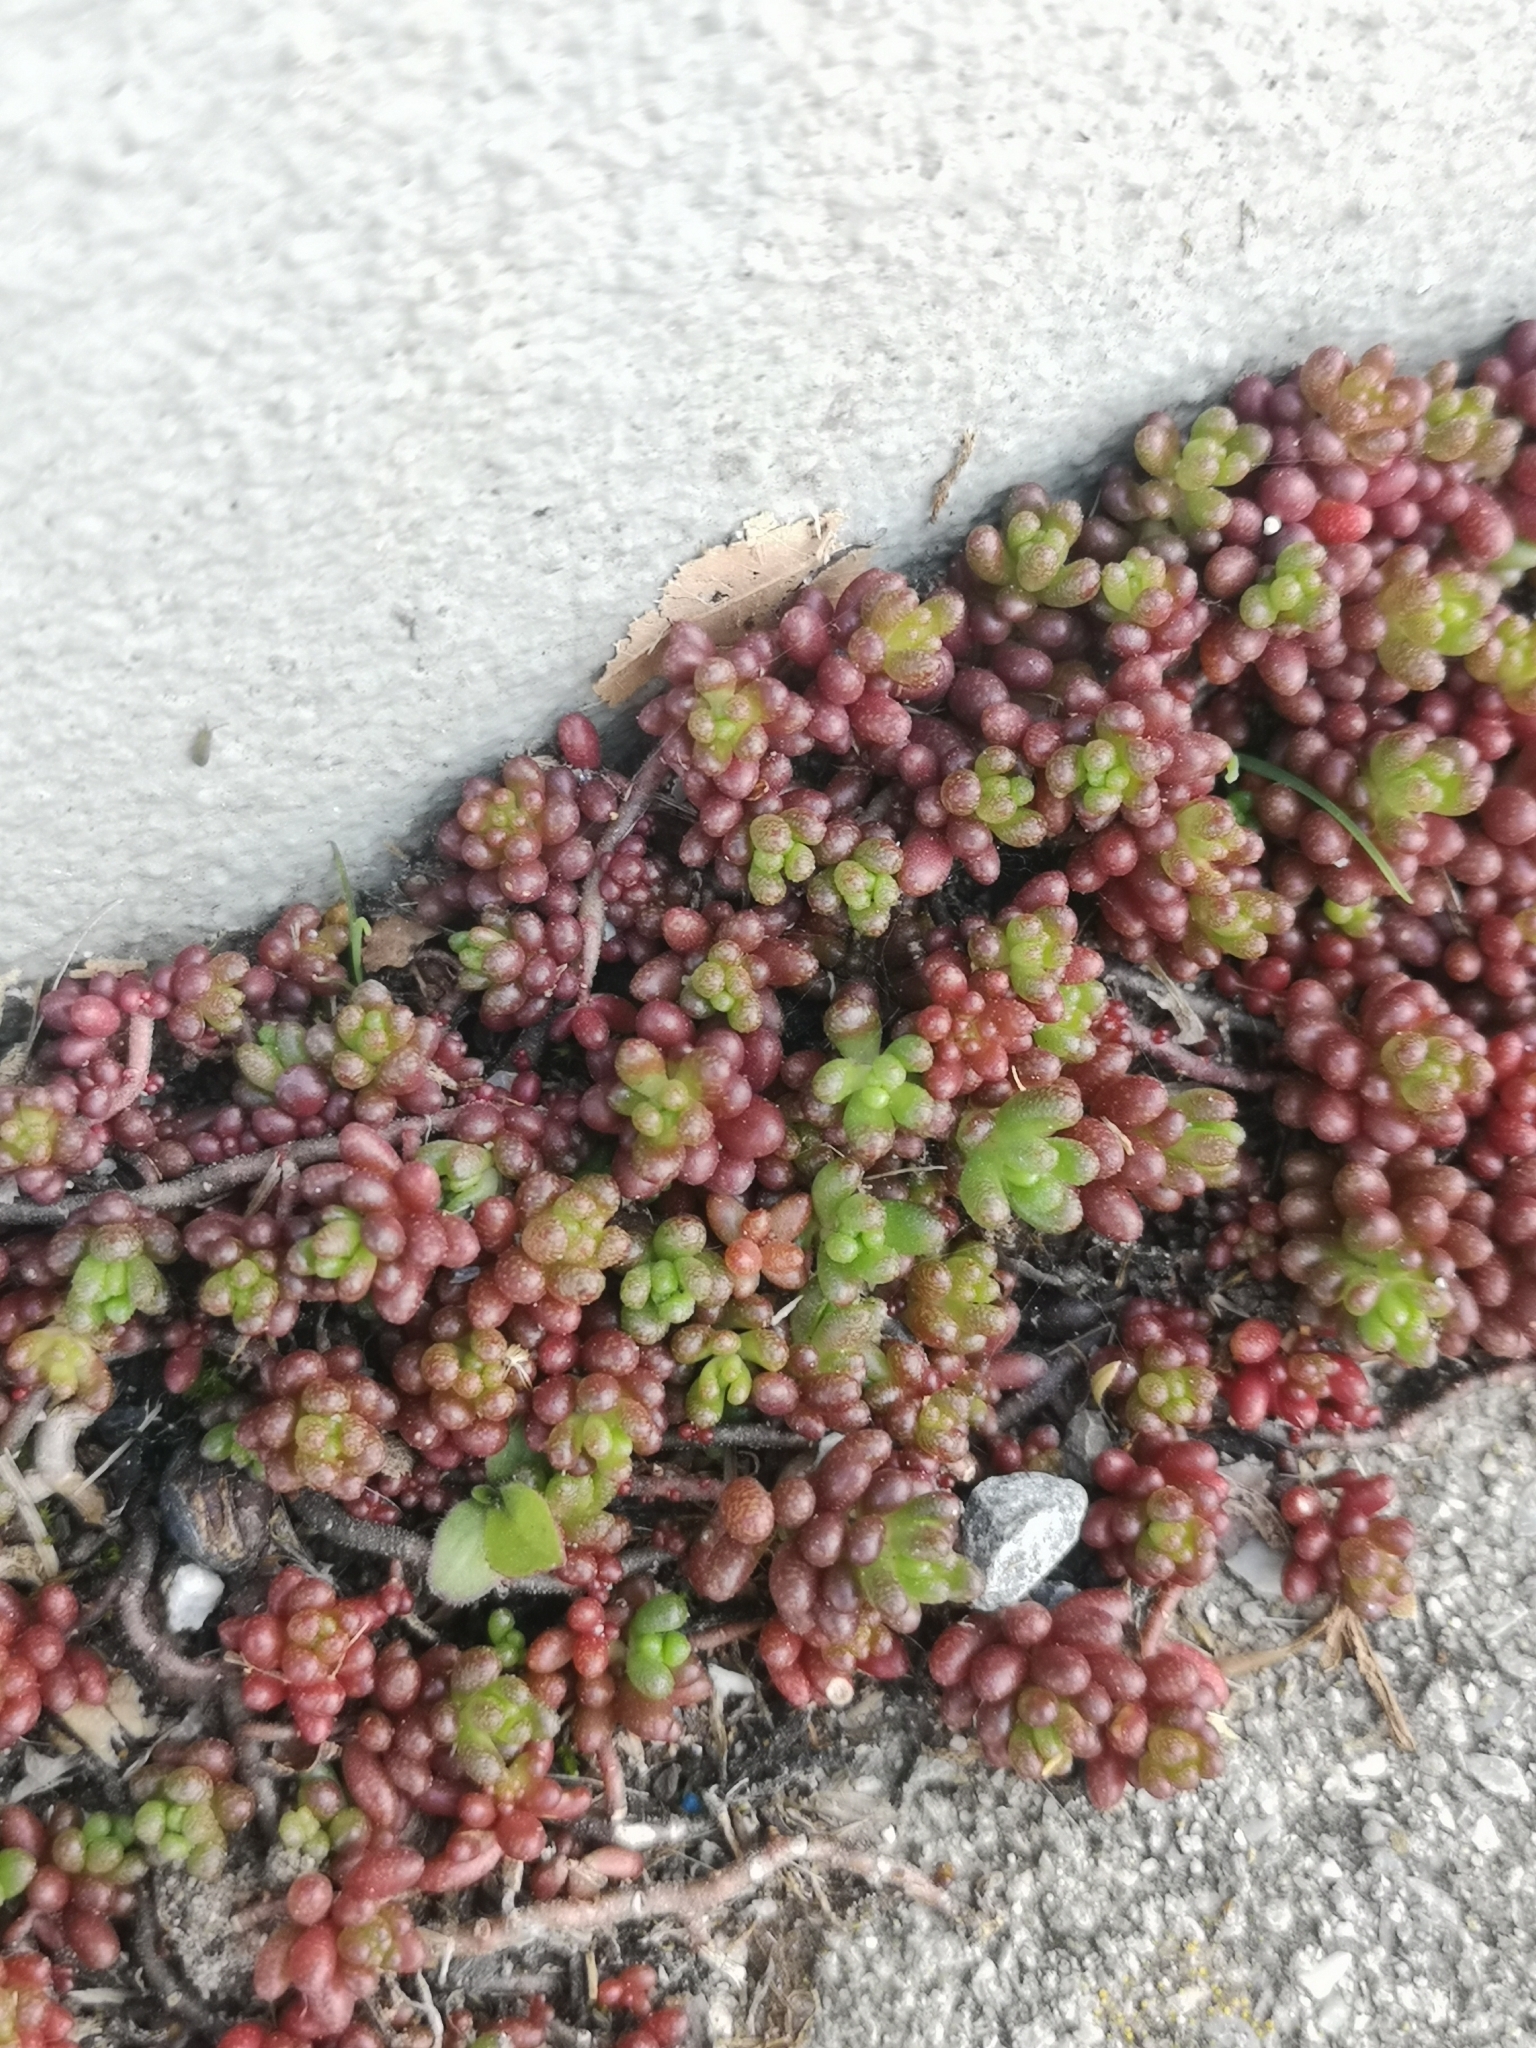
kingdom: Plantae
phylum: Tracheophyta
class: Magnoliopsida
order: Saxifragales
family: Crassulaceae
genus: Sedum
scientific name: Sedum album
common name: White stonecrop
